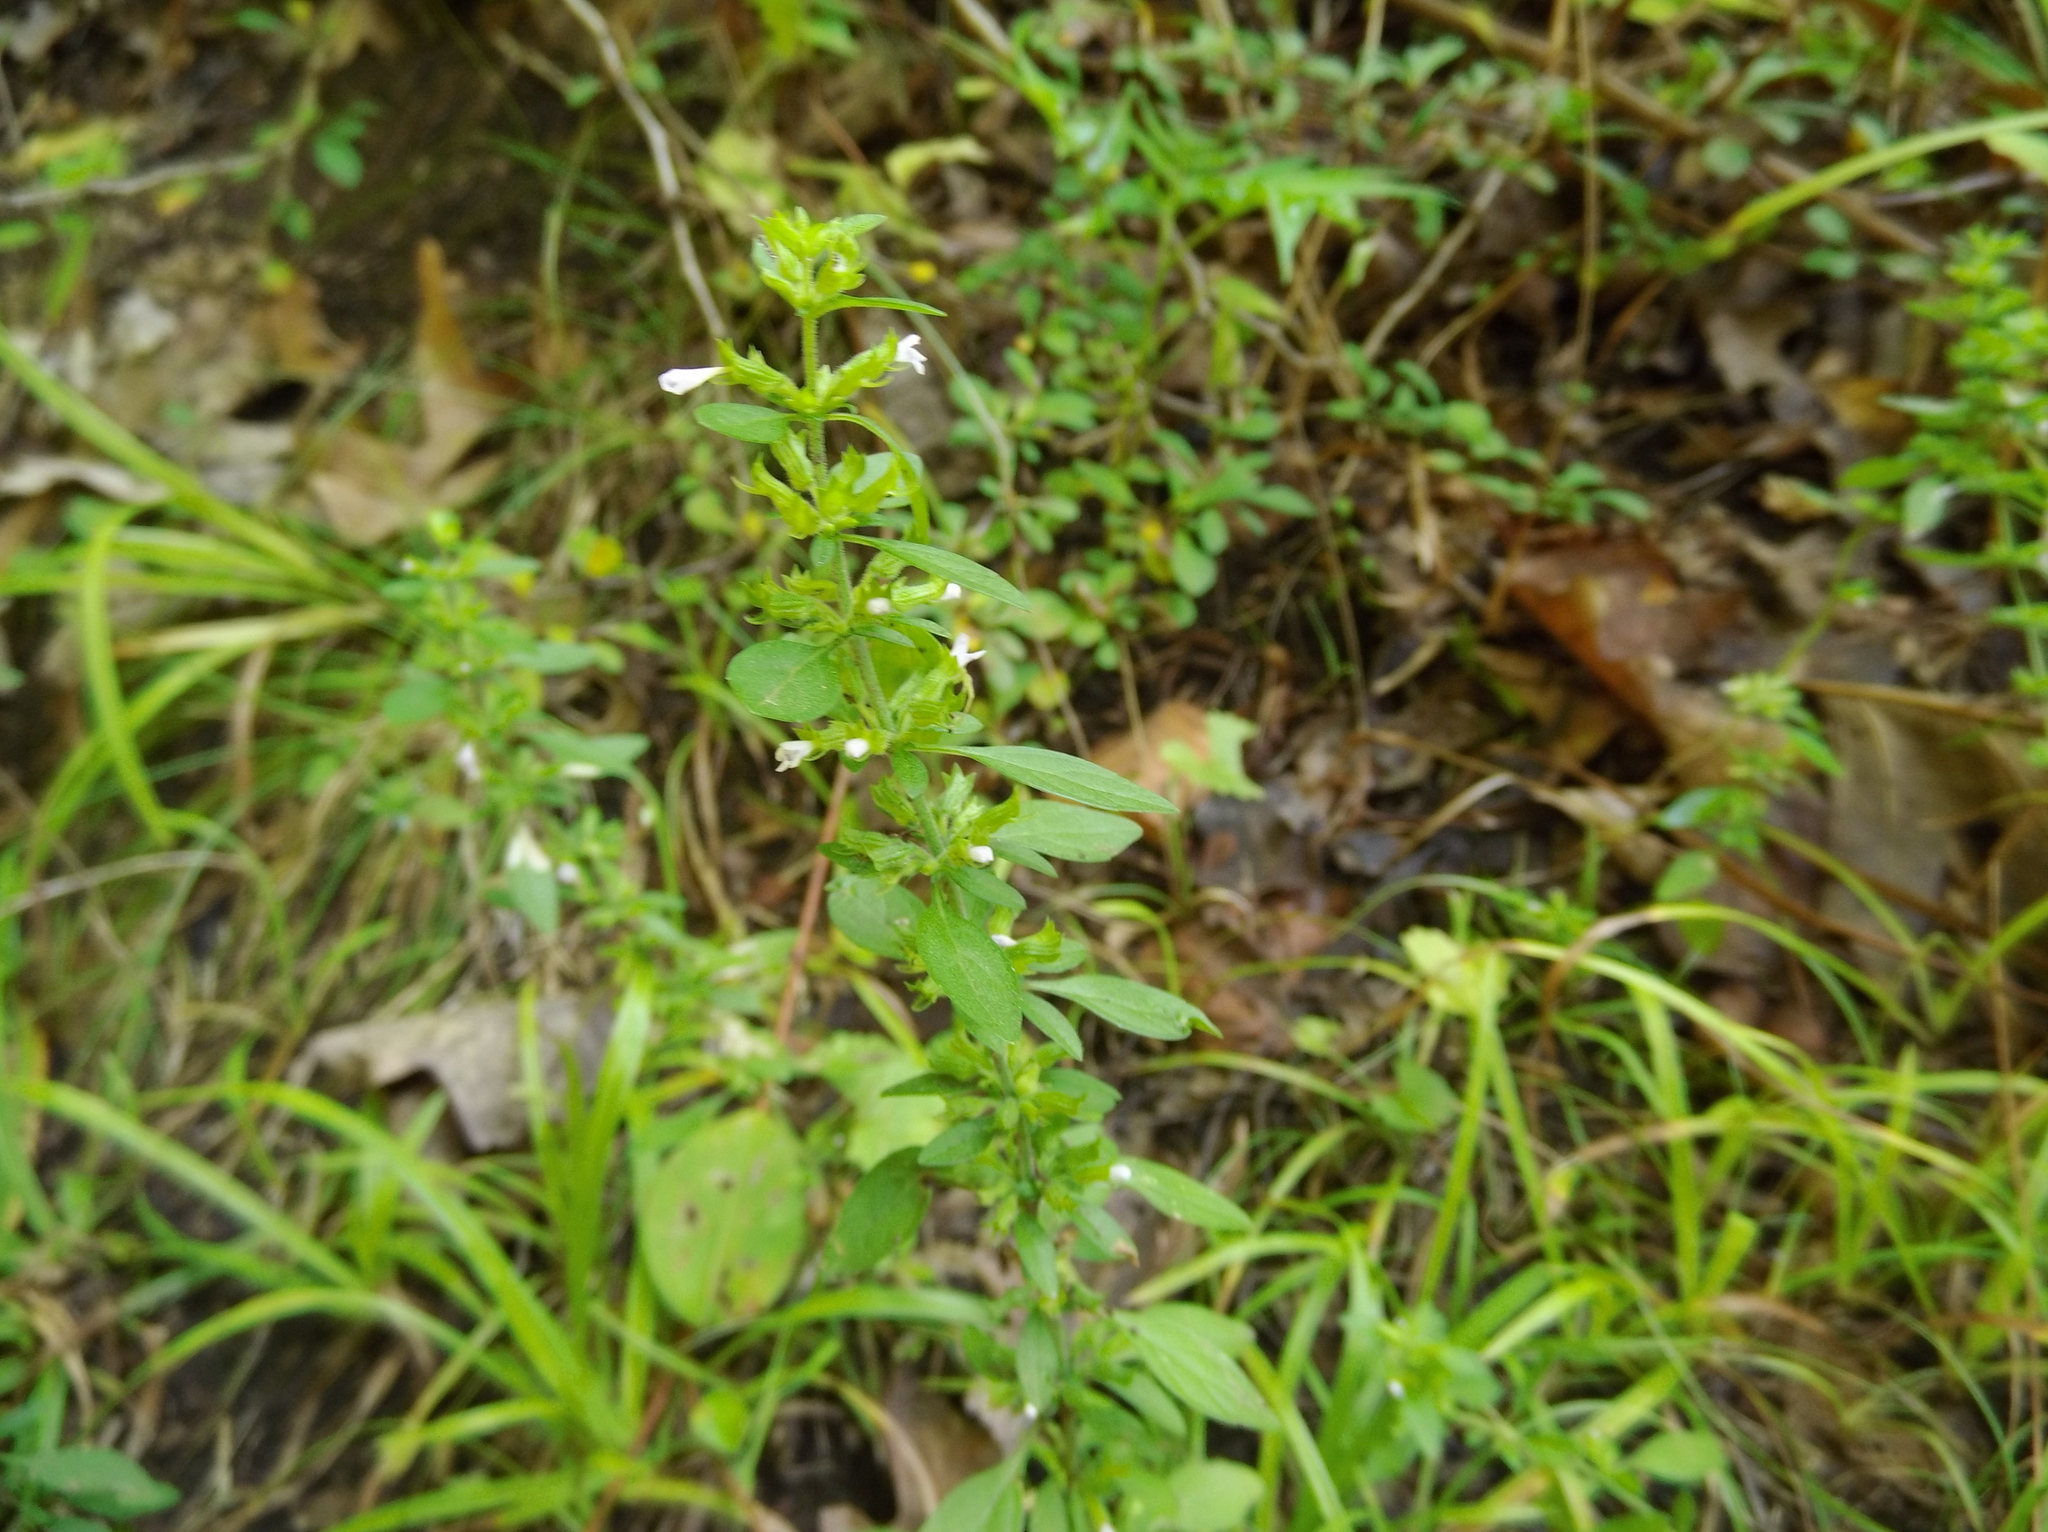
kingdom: Plantae
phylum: Tracheophyta
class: Magnoliopsida
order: Lamiales
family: Lamiaceae
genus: Hedeoma
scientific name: Hedeoma pulegioides
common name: American false pennyroyal
